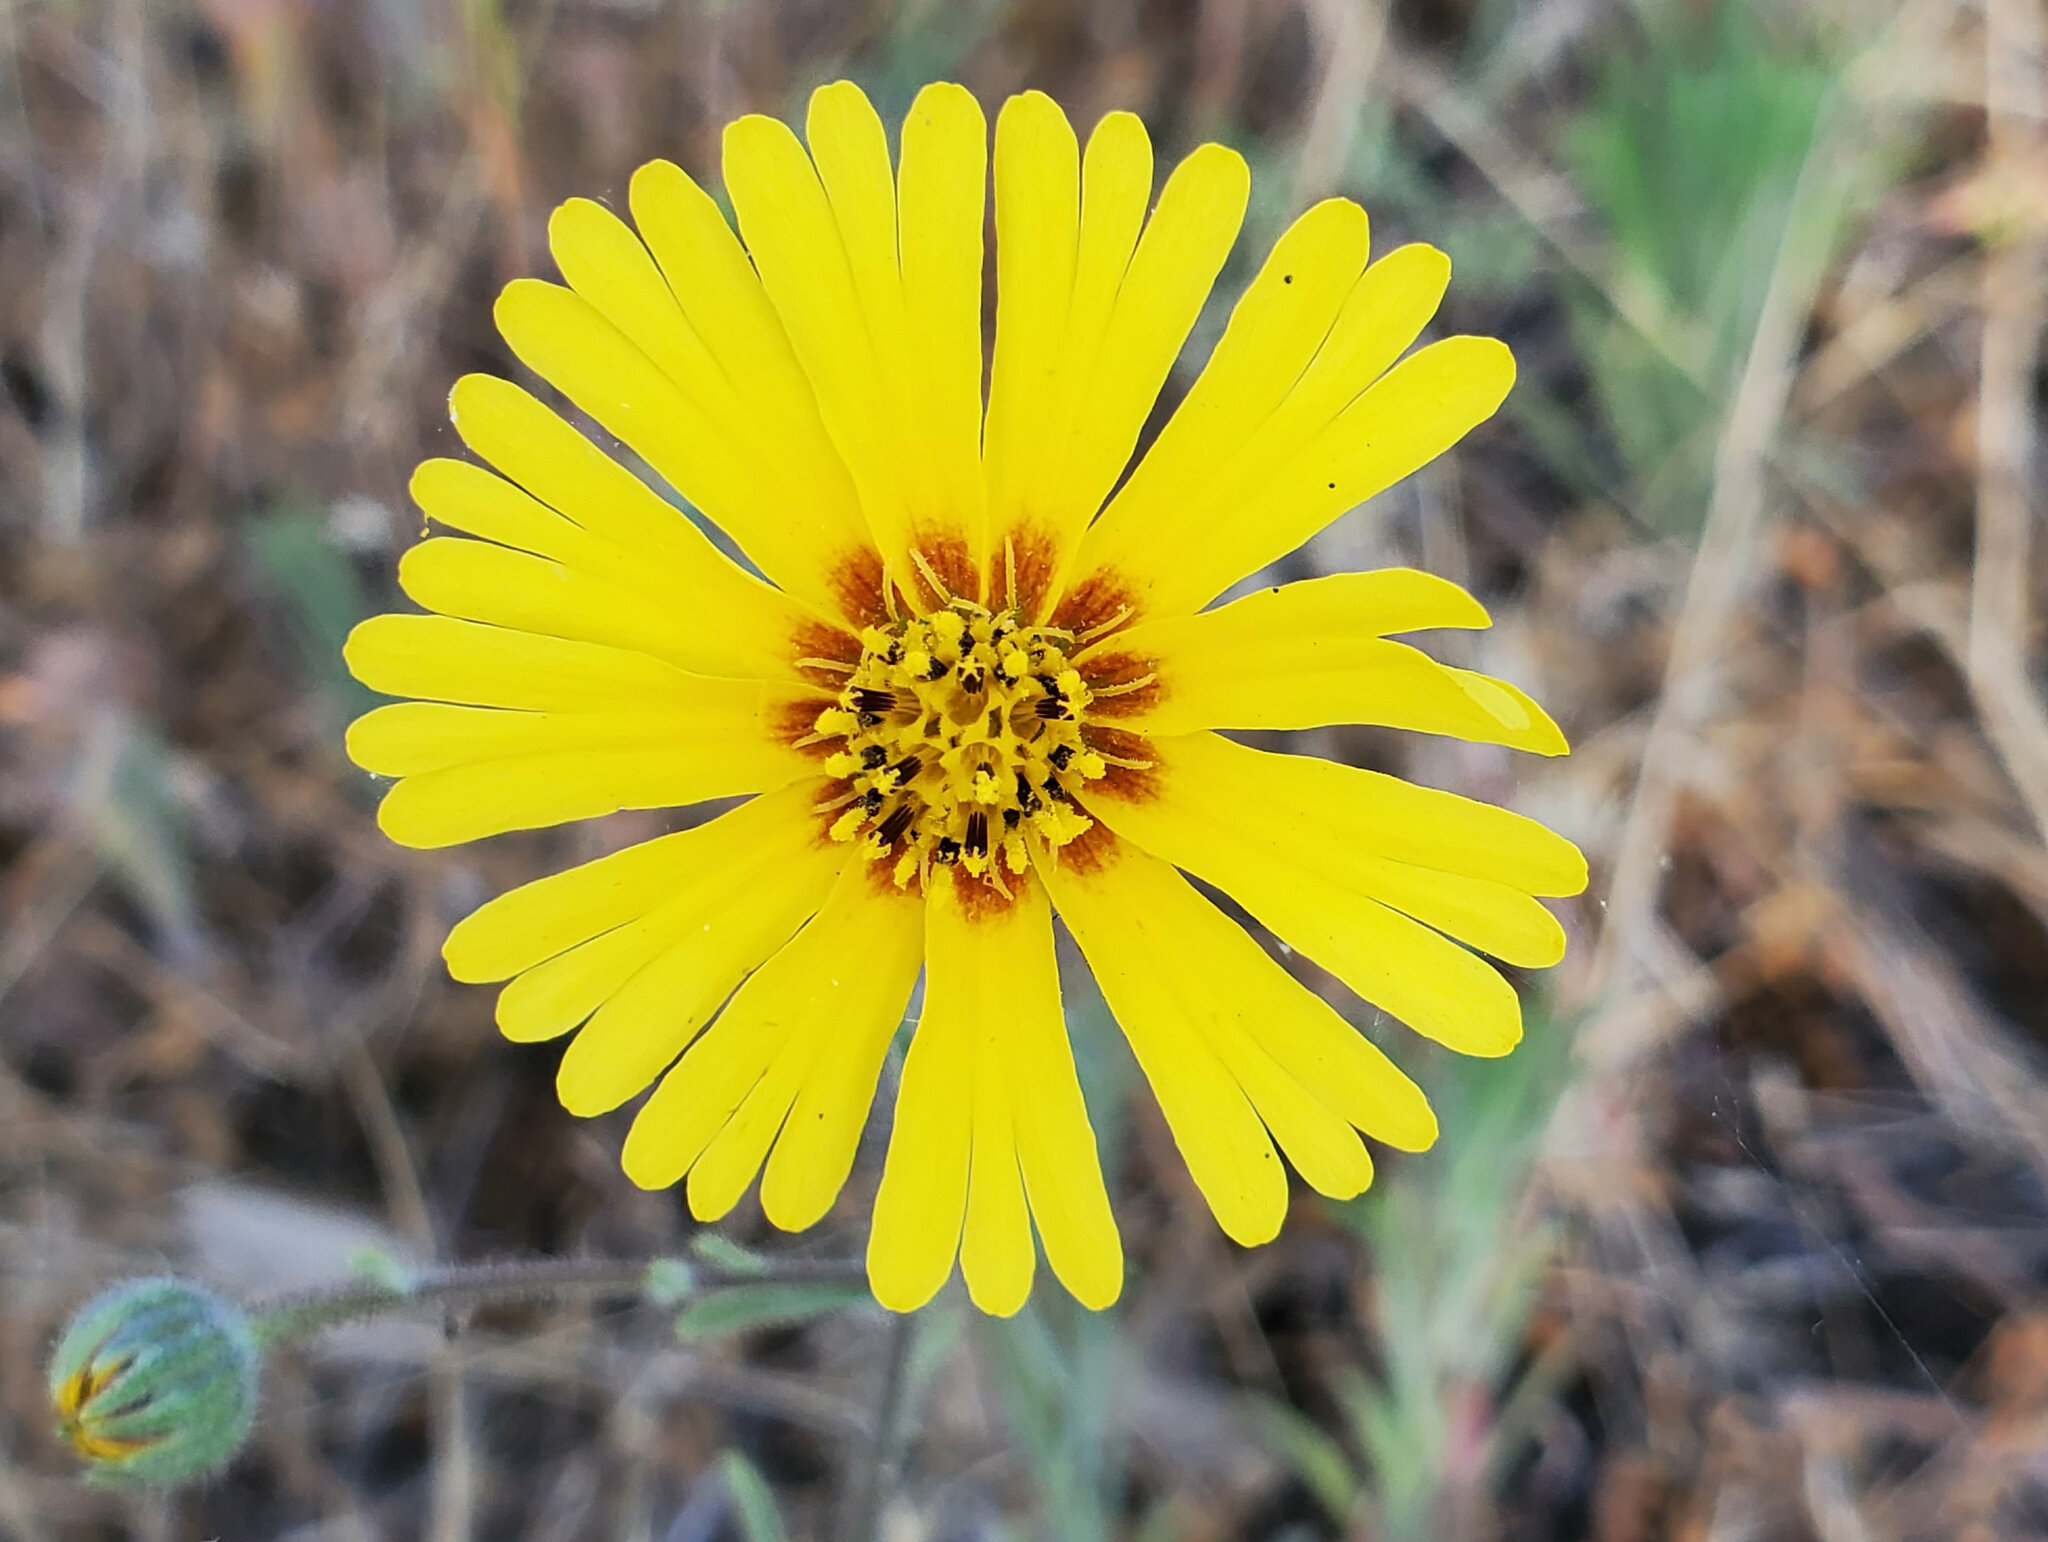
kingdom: Plantae
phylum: Tracheophyta
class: Magnoliopsida
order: Asterales
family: Asteraceae
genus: Madia
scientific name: Madia elegans
